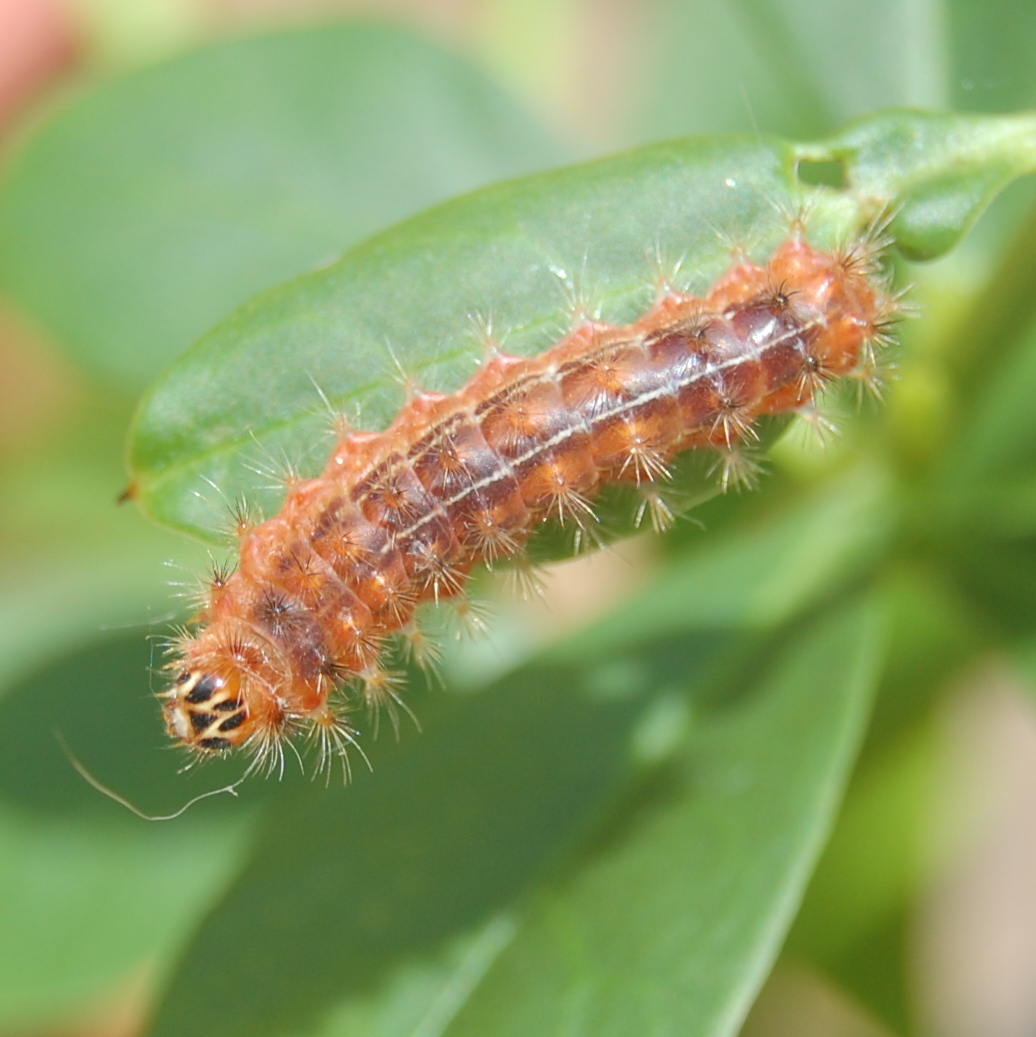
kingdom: Animalia
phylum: Arthropoda
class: Insecta
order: Lepidoptera
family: Lycaenidae
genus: Emesis
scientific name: Emesis russula
